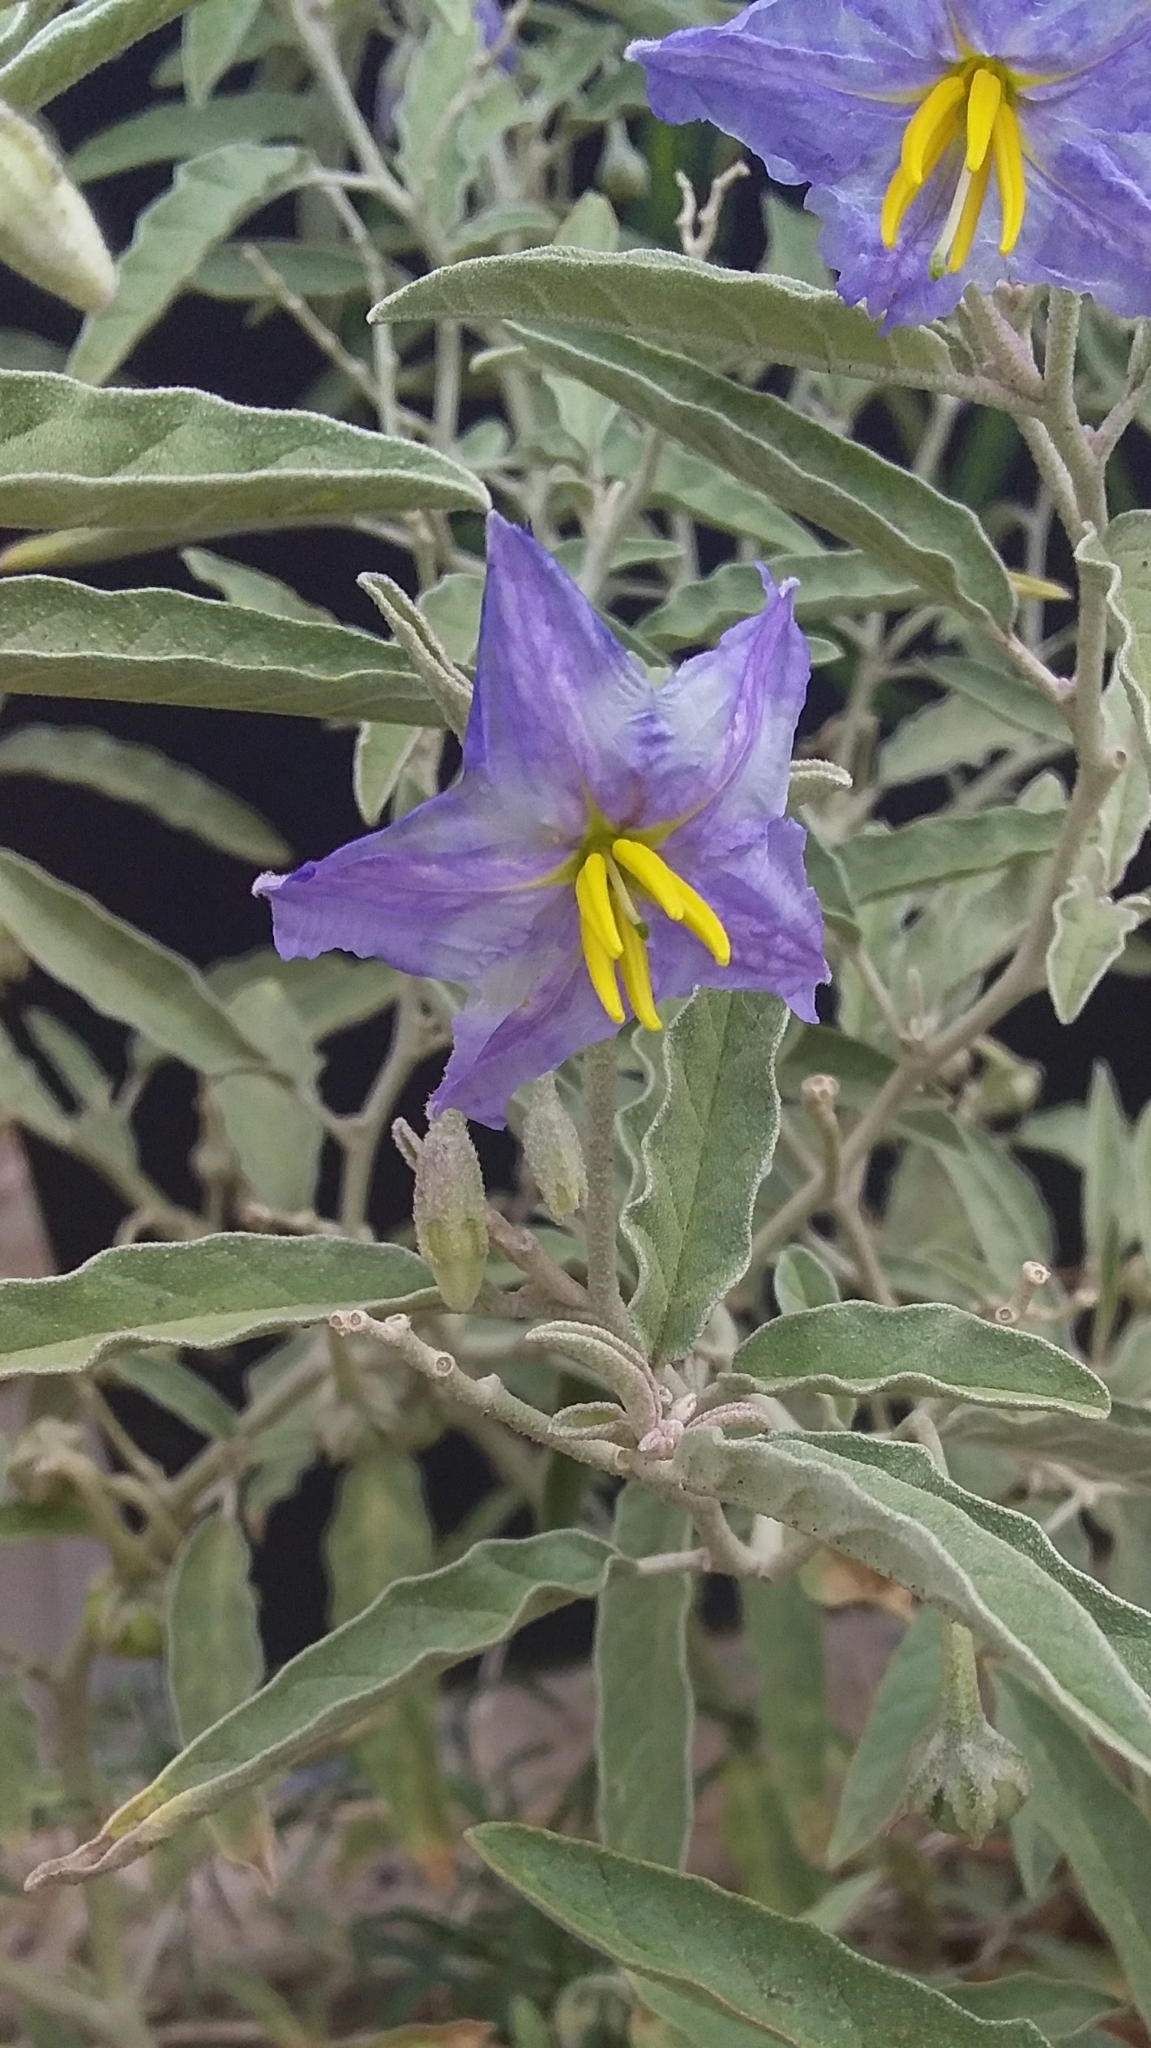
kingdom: Plantae
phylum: Tracheophyta
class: Magnoliopsida
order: Solanales
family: Solanaceae
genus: Solanum
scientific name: Solanum elaeagnifolium
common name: Silverleaf nightshade
